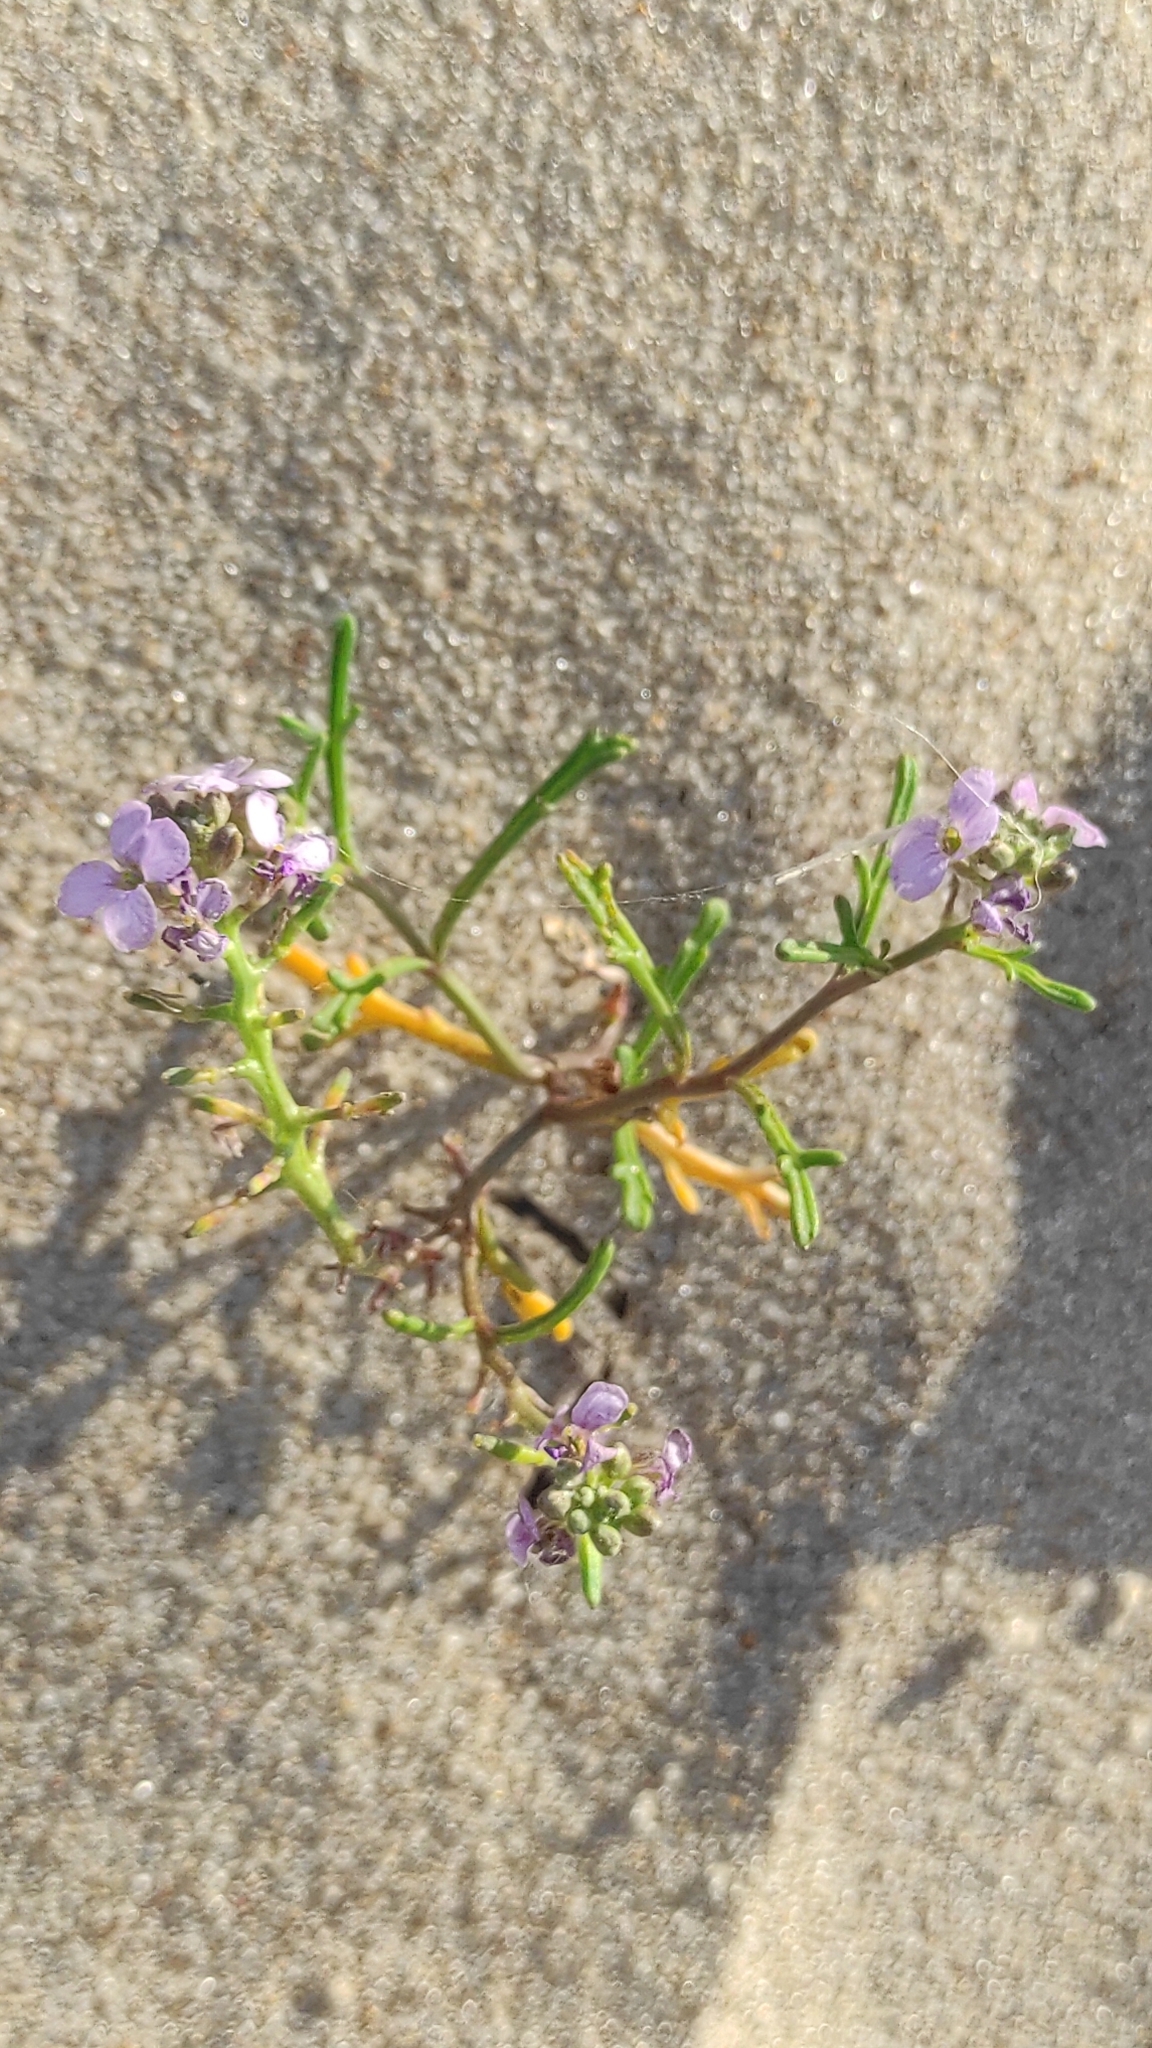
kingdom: Plantae
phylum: Tracheophyta
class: Magnoliopsida
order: Brassicales
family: Brassicaceae
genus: Cakile
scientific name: Cakile maritima
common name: Sea rocket
